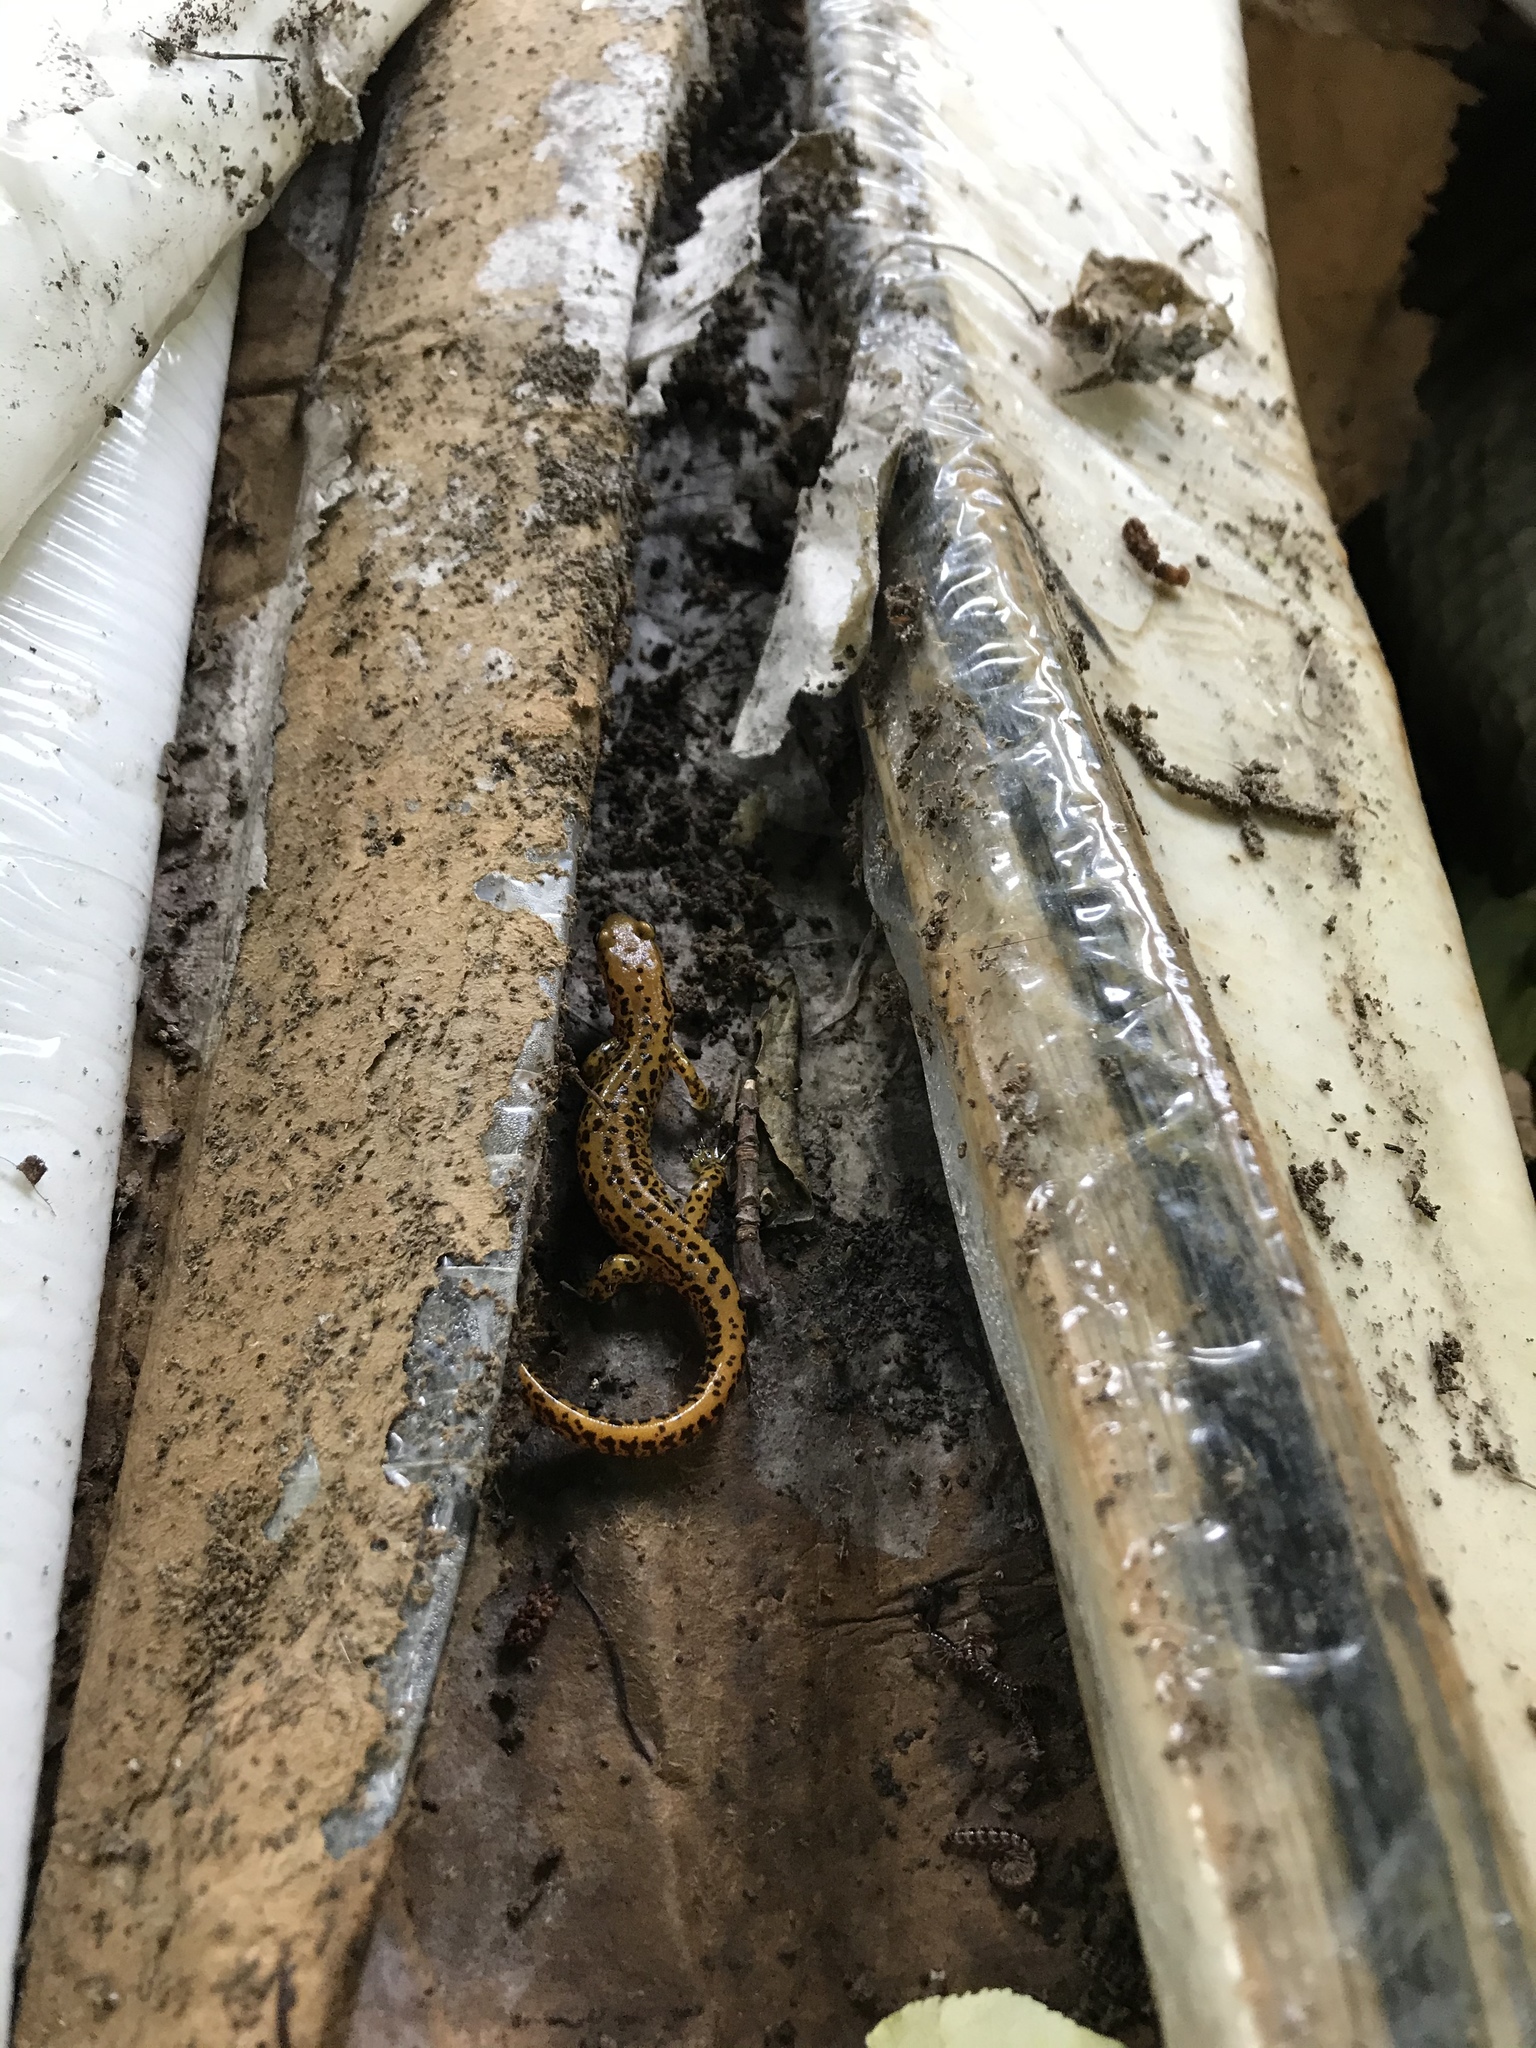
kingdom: Animalia
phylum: Chordata
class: Amphibia
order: Caudata
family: Plethodontidae
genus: Eurycea
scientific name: Eurycea longicauda
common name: Long-tailed salamander
